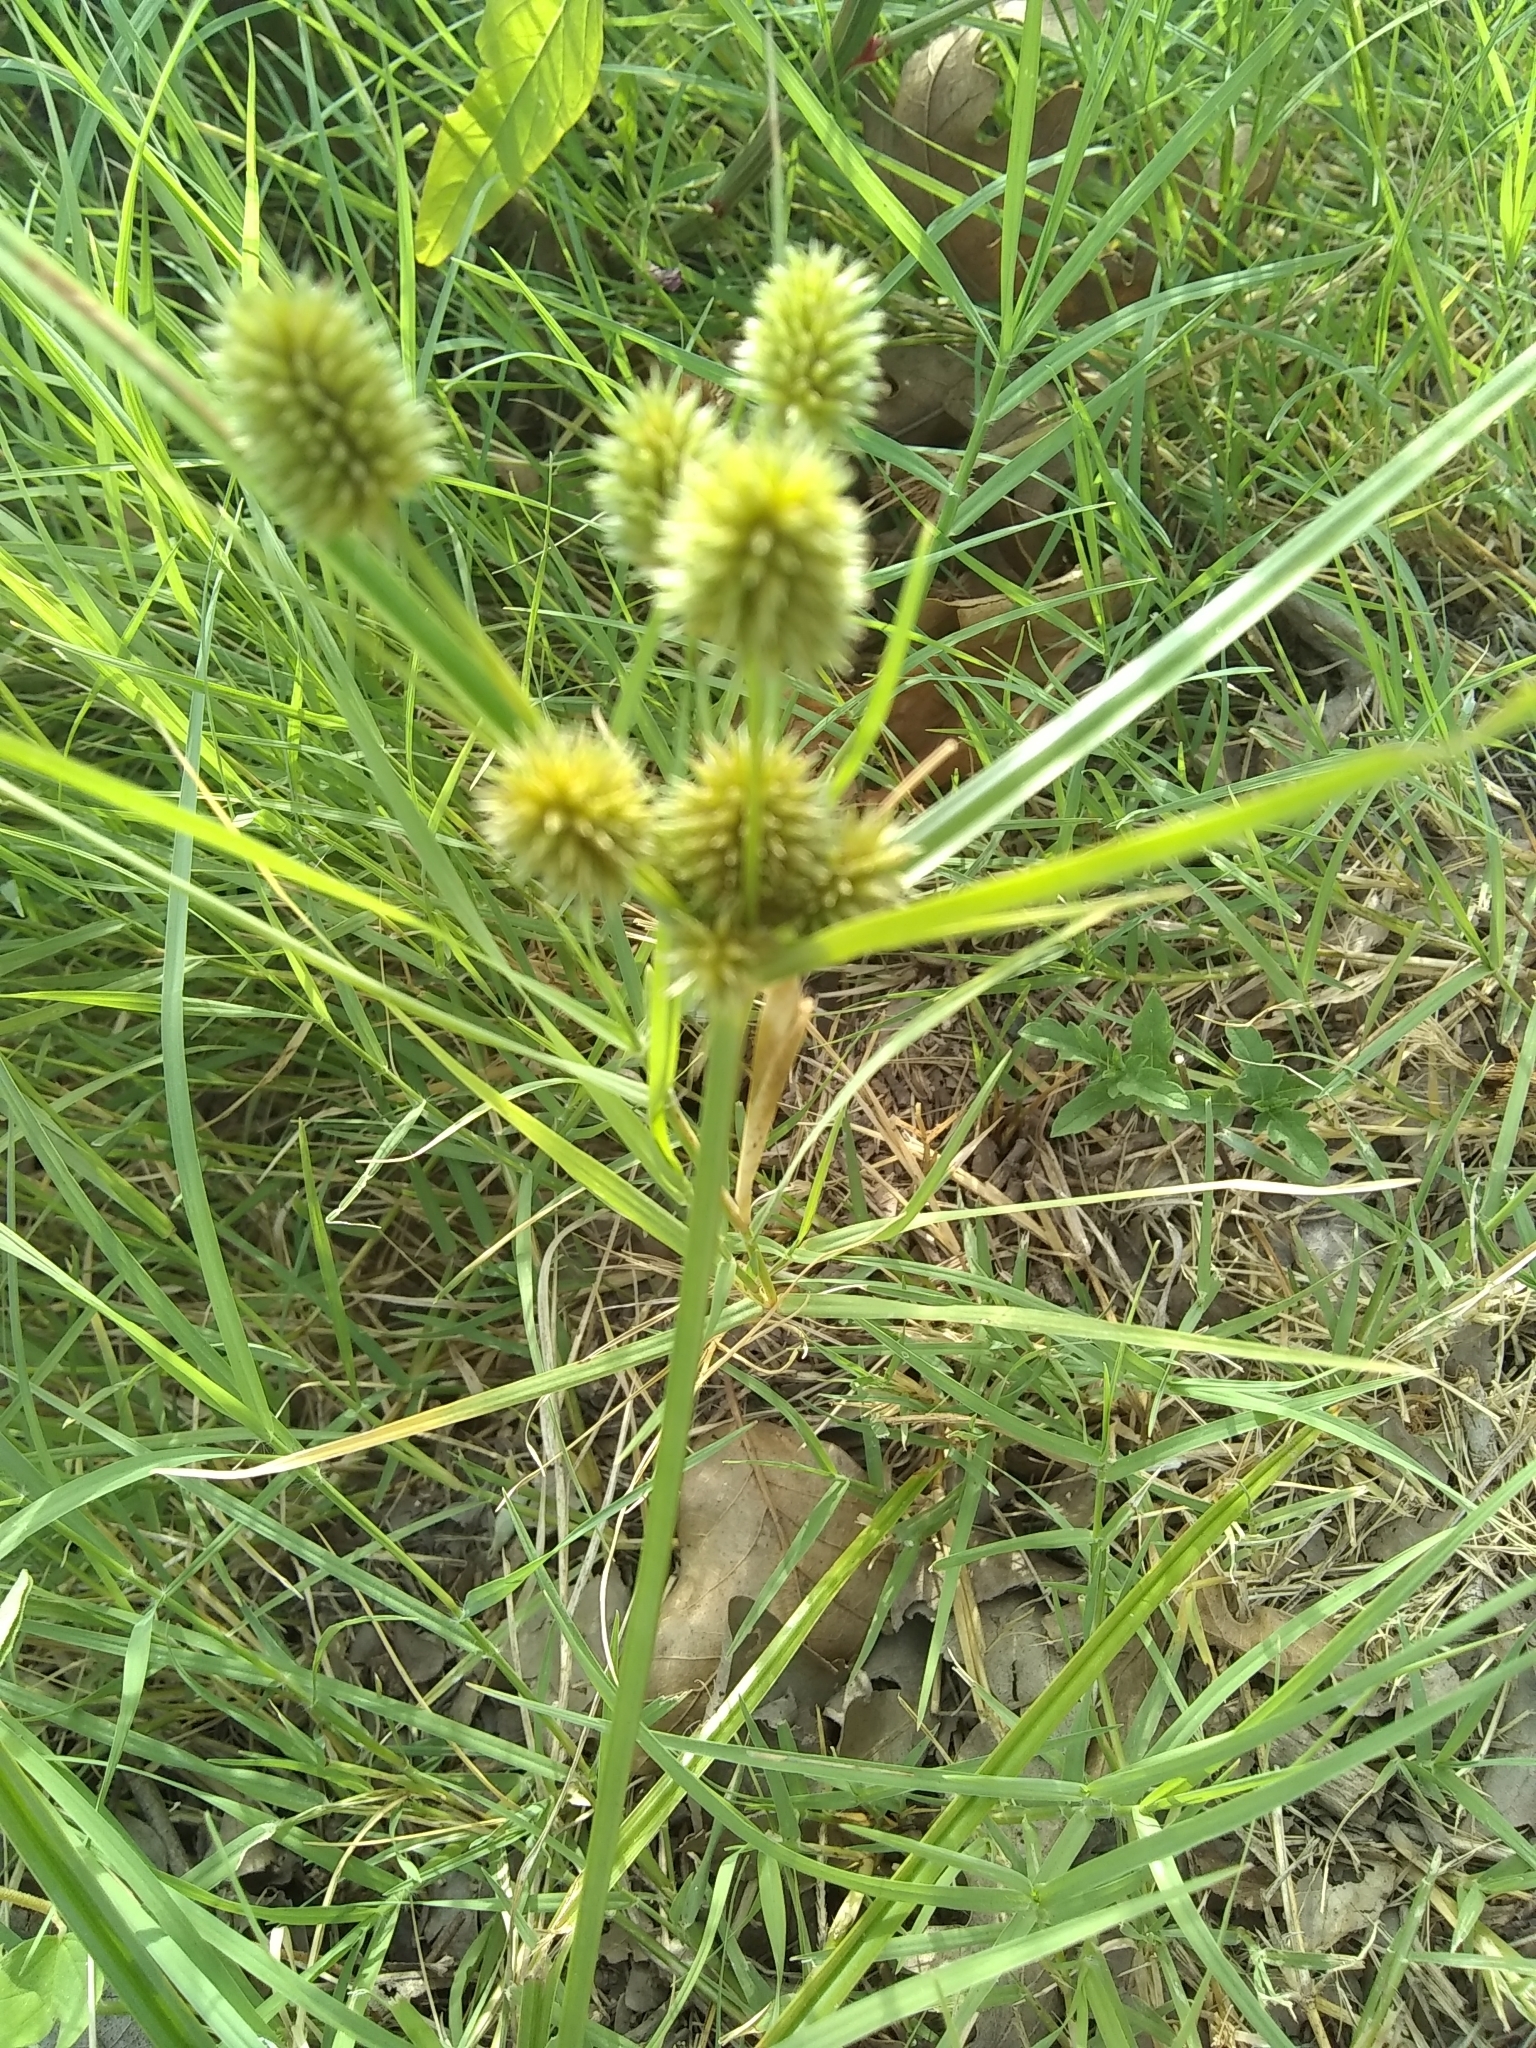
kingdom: Plantae
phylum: Tracheophyta
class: Liliopsida
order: Poales
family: Cyperaceae
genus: Cyperus
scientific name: Cyperus echinatus
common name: Teasel sedge
